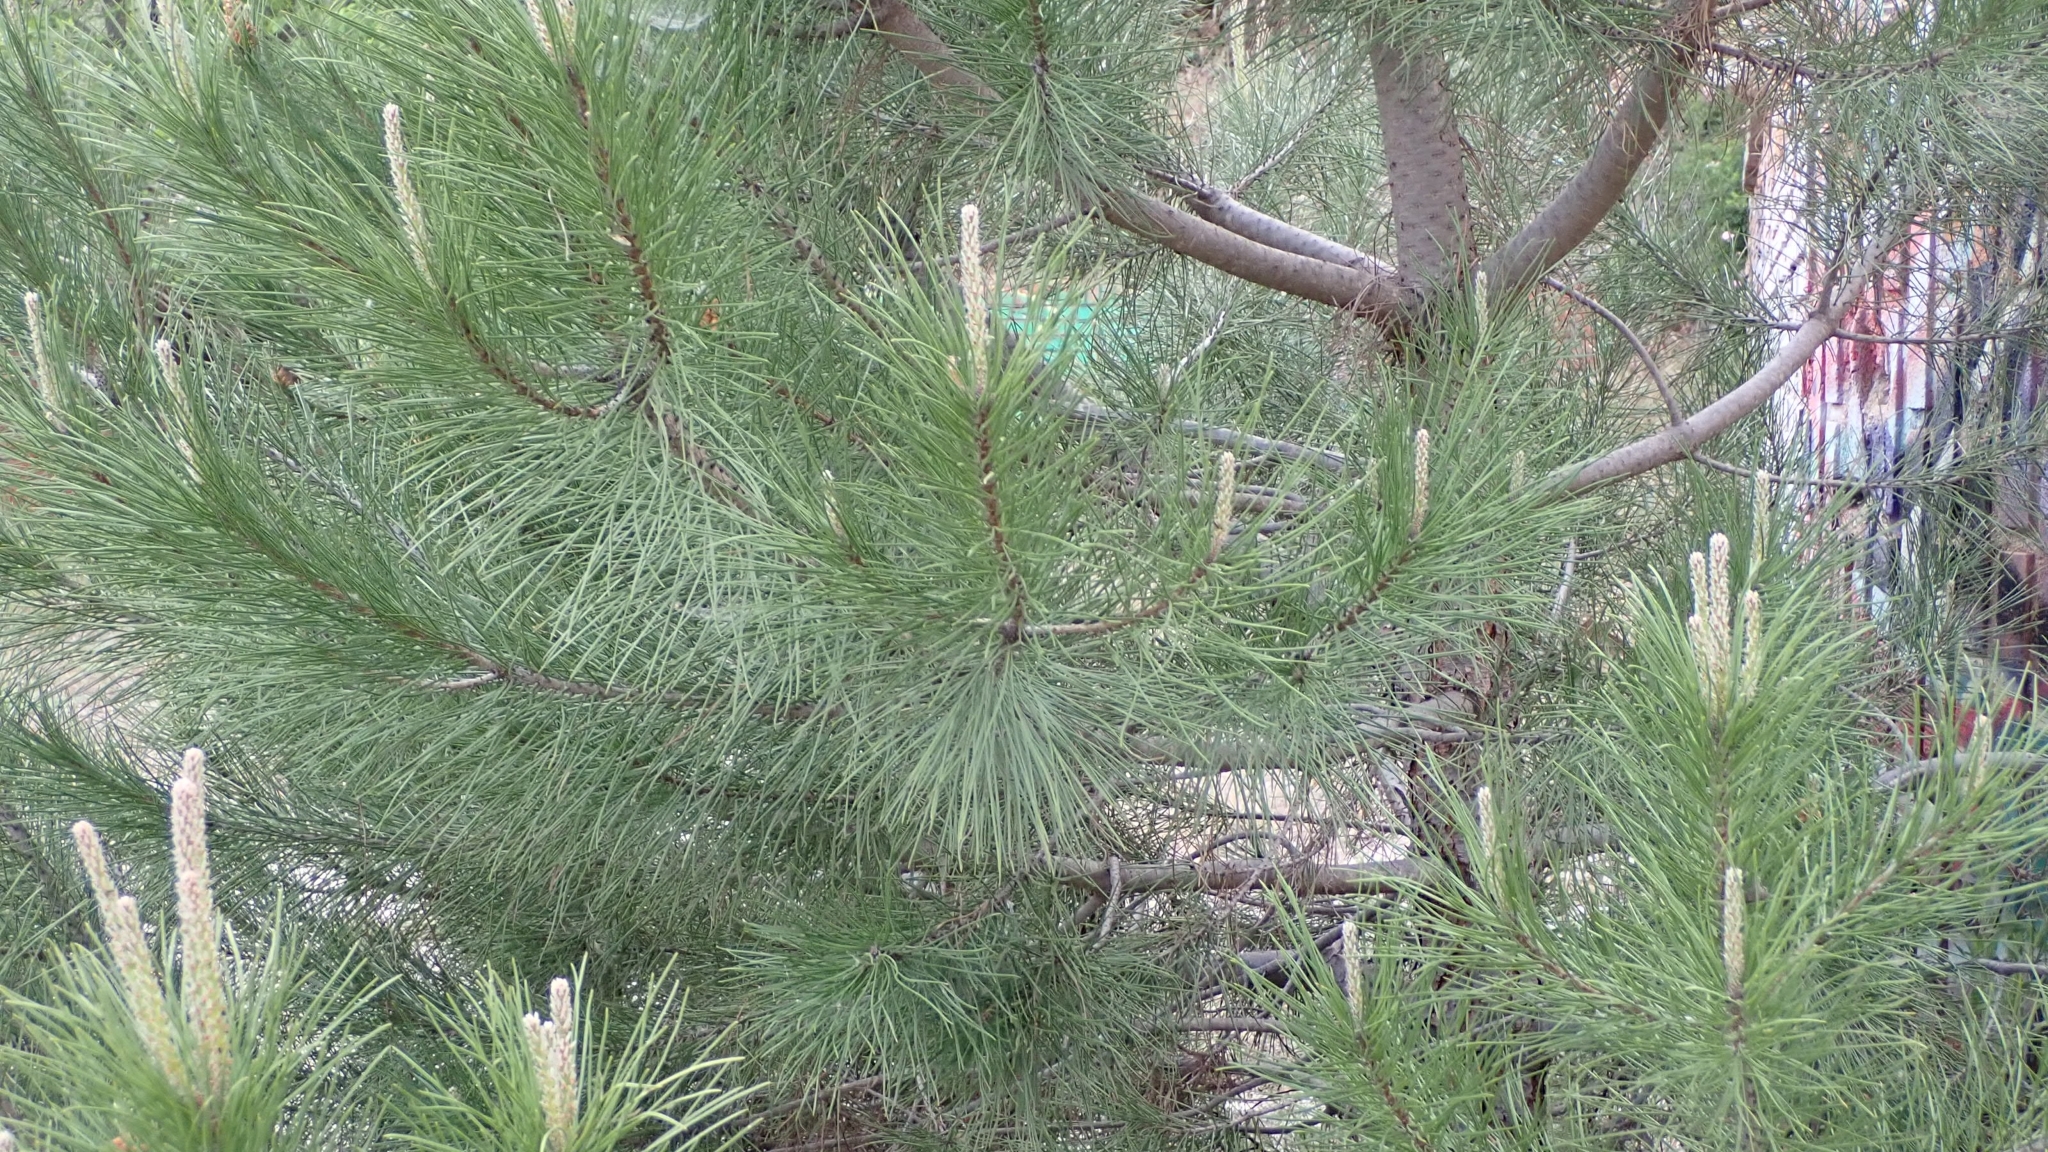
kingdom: Plantae
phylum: Tracheophyta
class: Pinopsida
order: Pinales
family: Pinaceae
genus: Pinus
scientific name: Pinus pinea
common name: Italian stone pine
